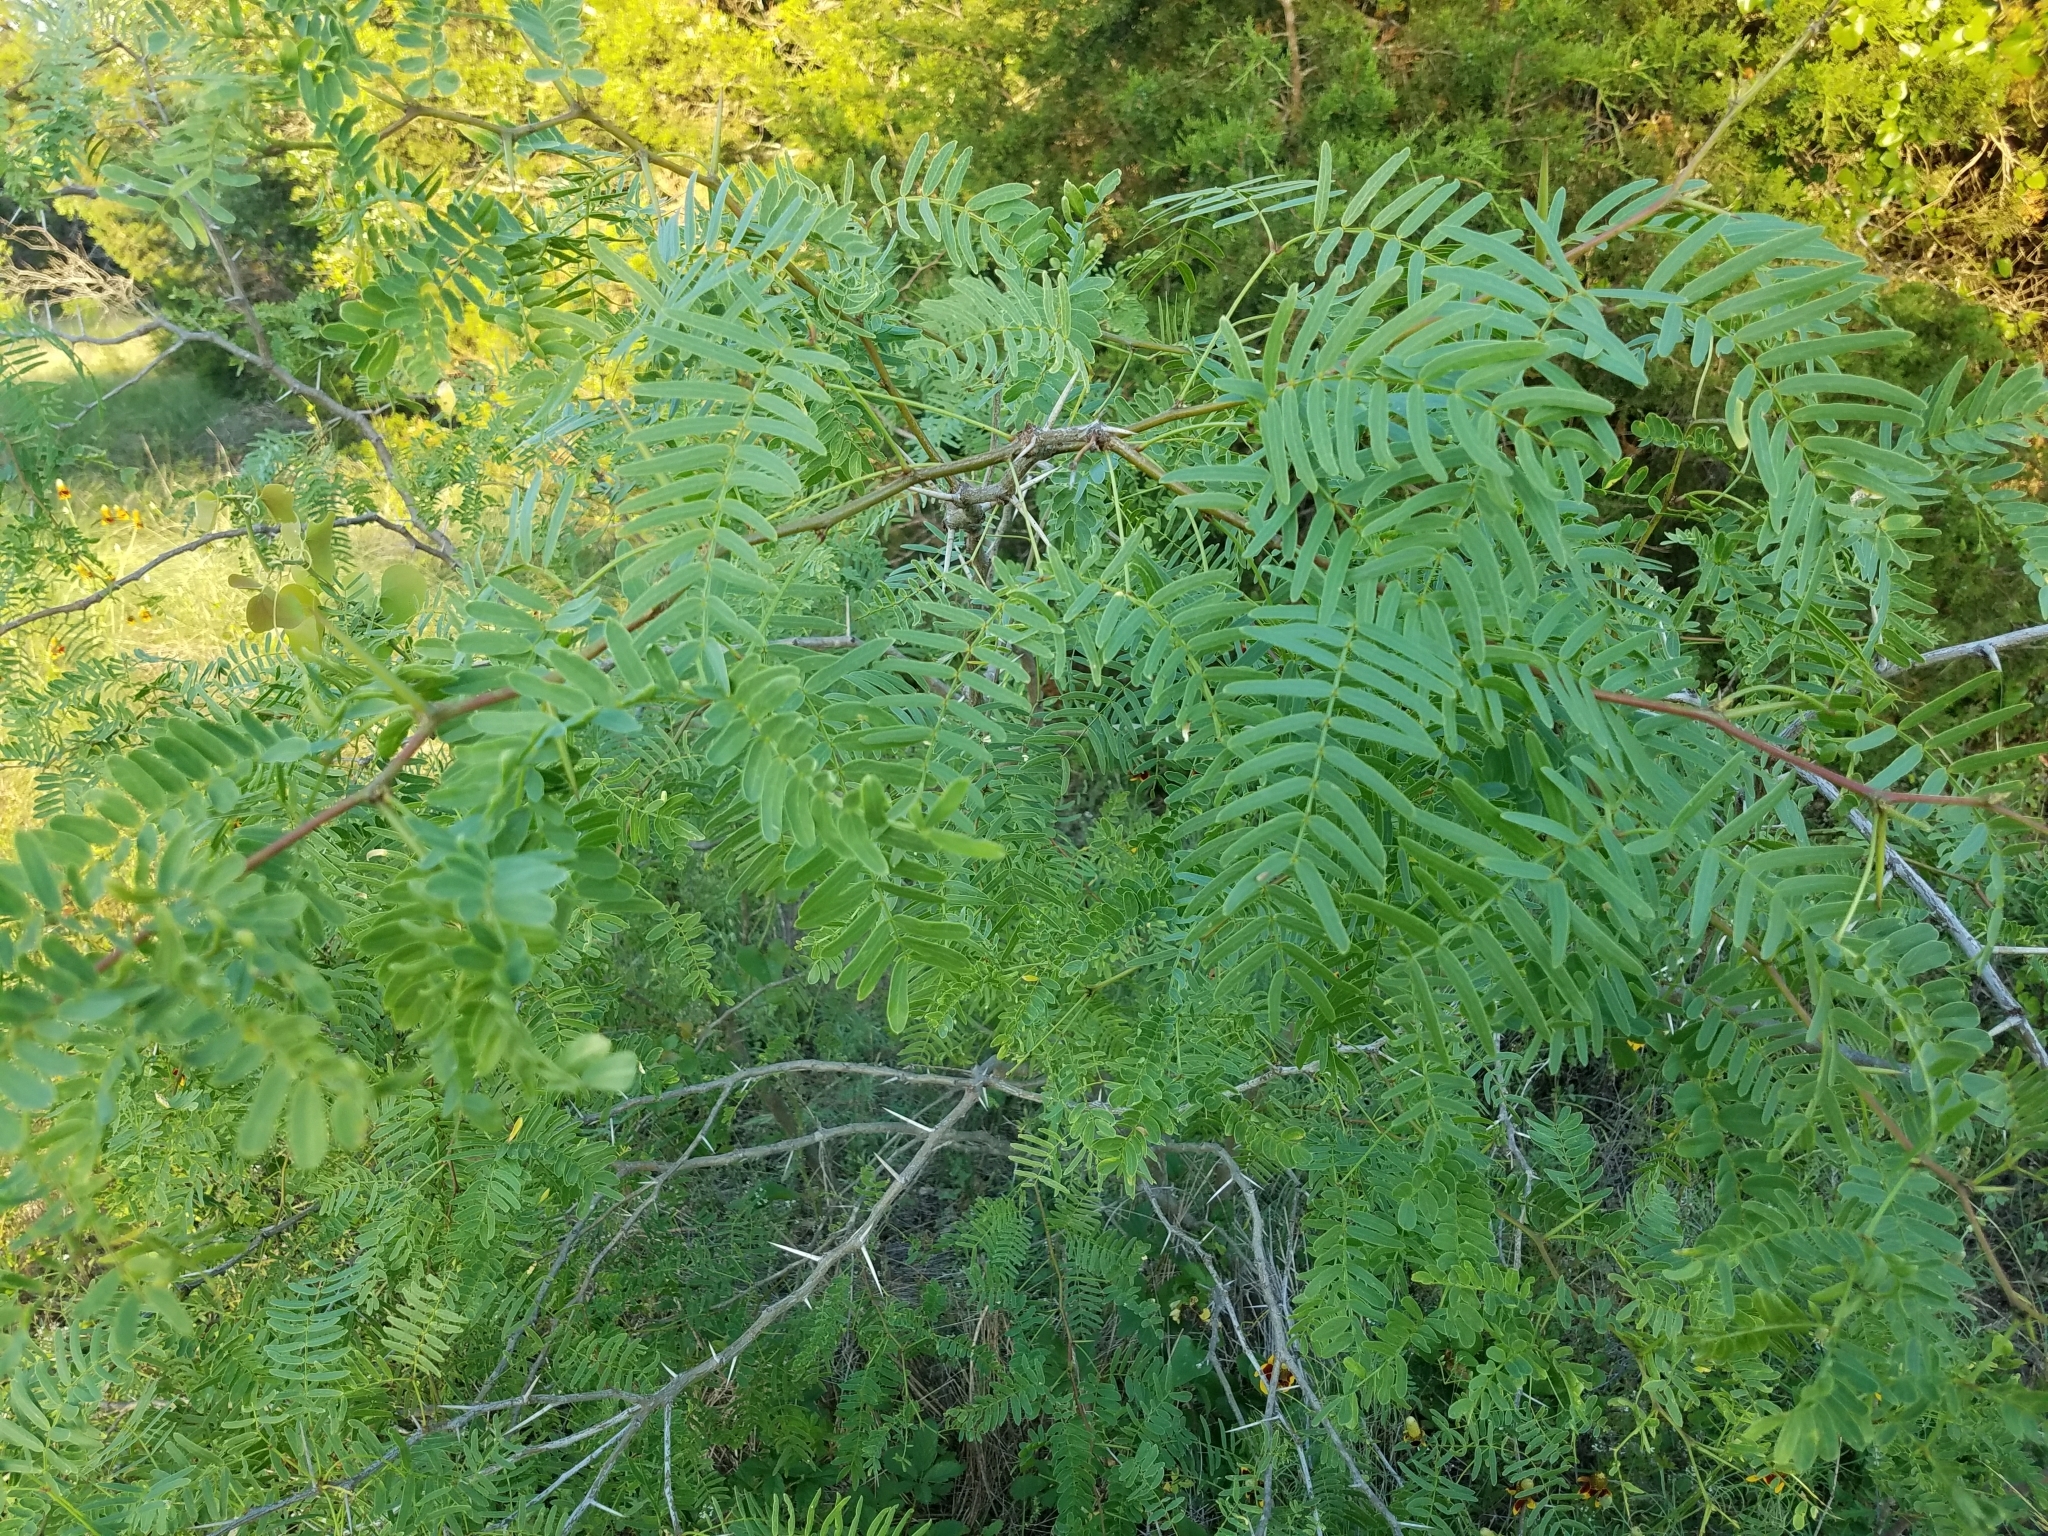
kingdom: Plantae
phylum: Tracheophyta
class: Magnoliopsida
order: Fabales
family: Fabaceae
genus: Prosopis
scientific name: Prosopis glandulosa
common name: Honey mesquite
